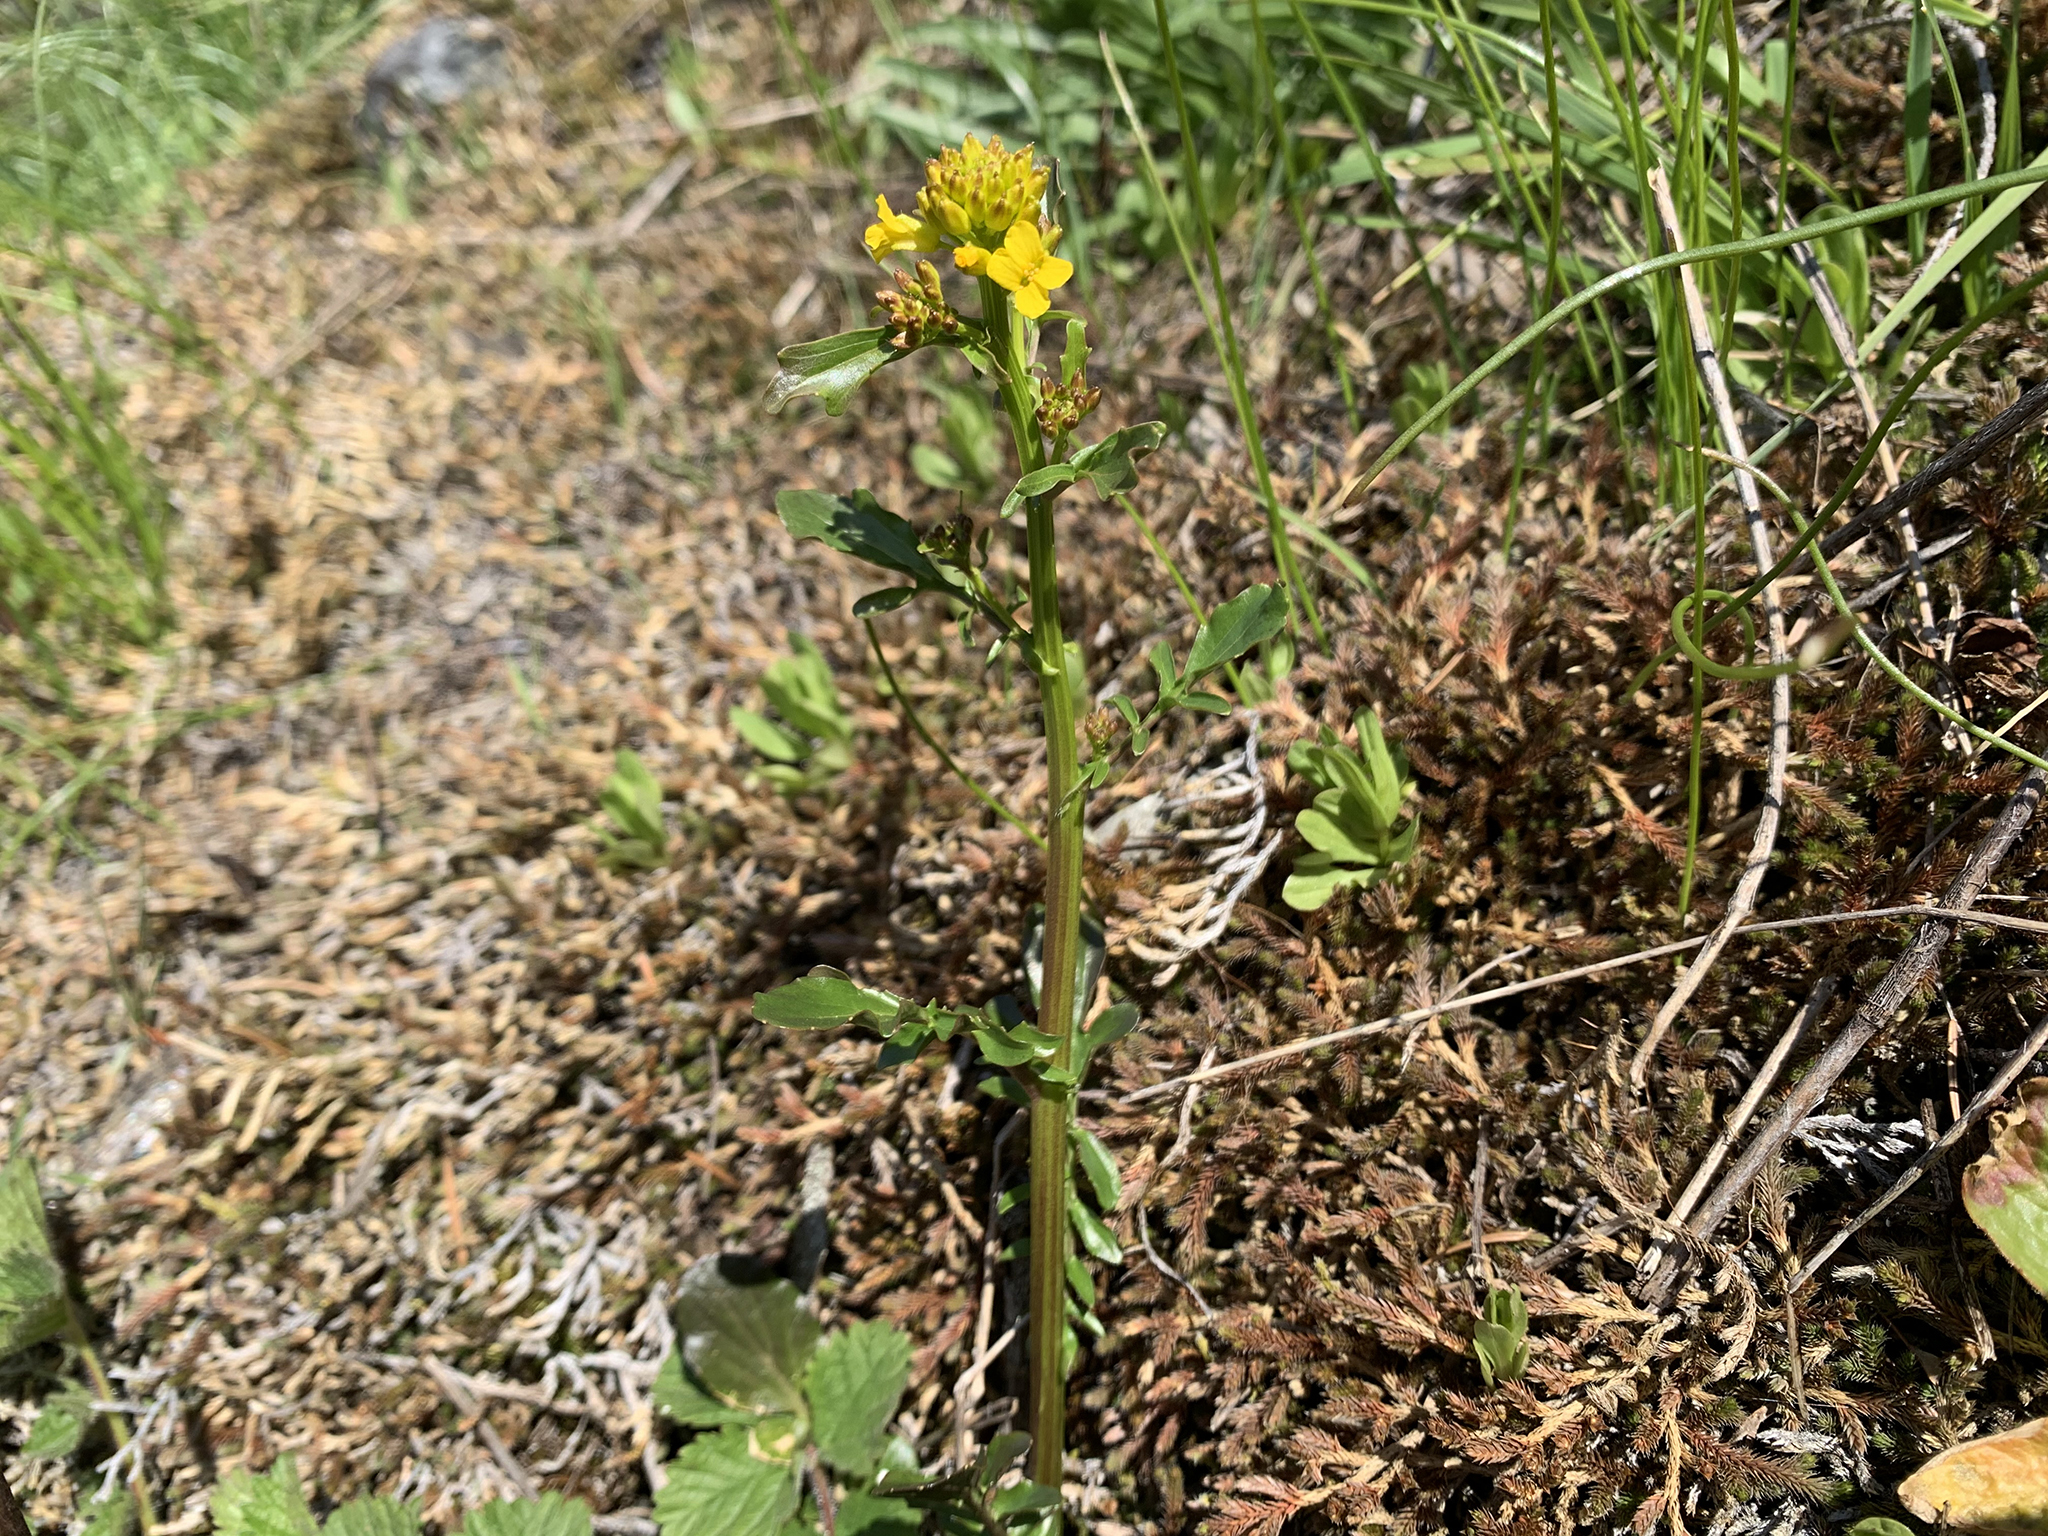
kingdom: Plantae
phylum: Tracheophyta
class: Magnoliopsida
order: Brassicales
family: Brassicaceae
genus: Barbarea
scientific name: Barbarea orthoceras
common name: American wintercress
